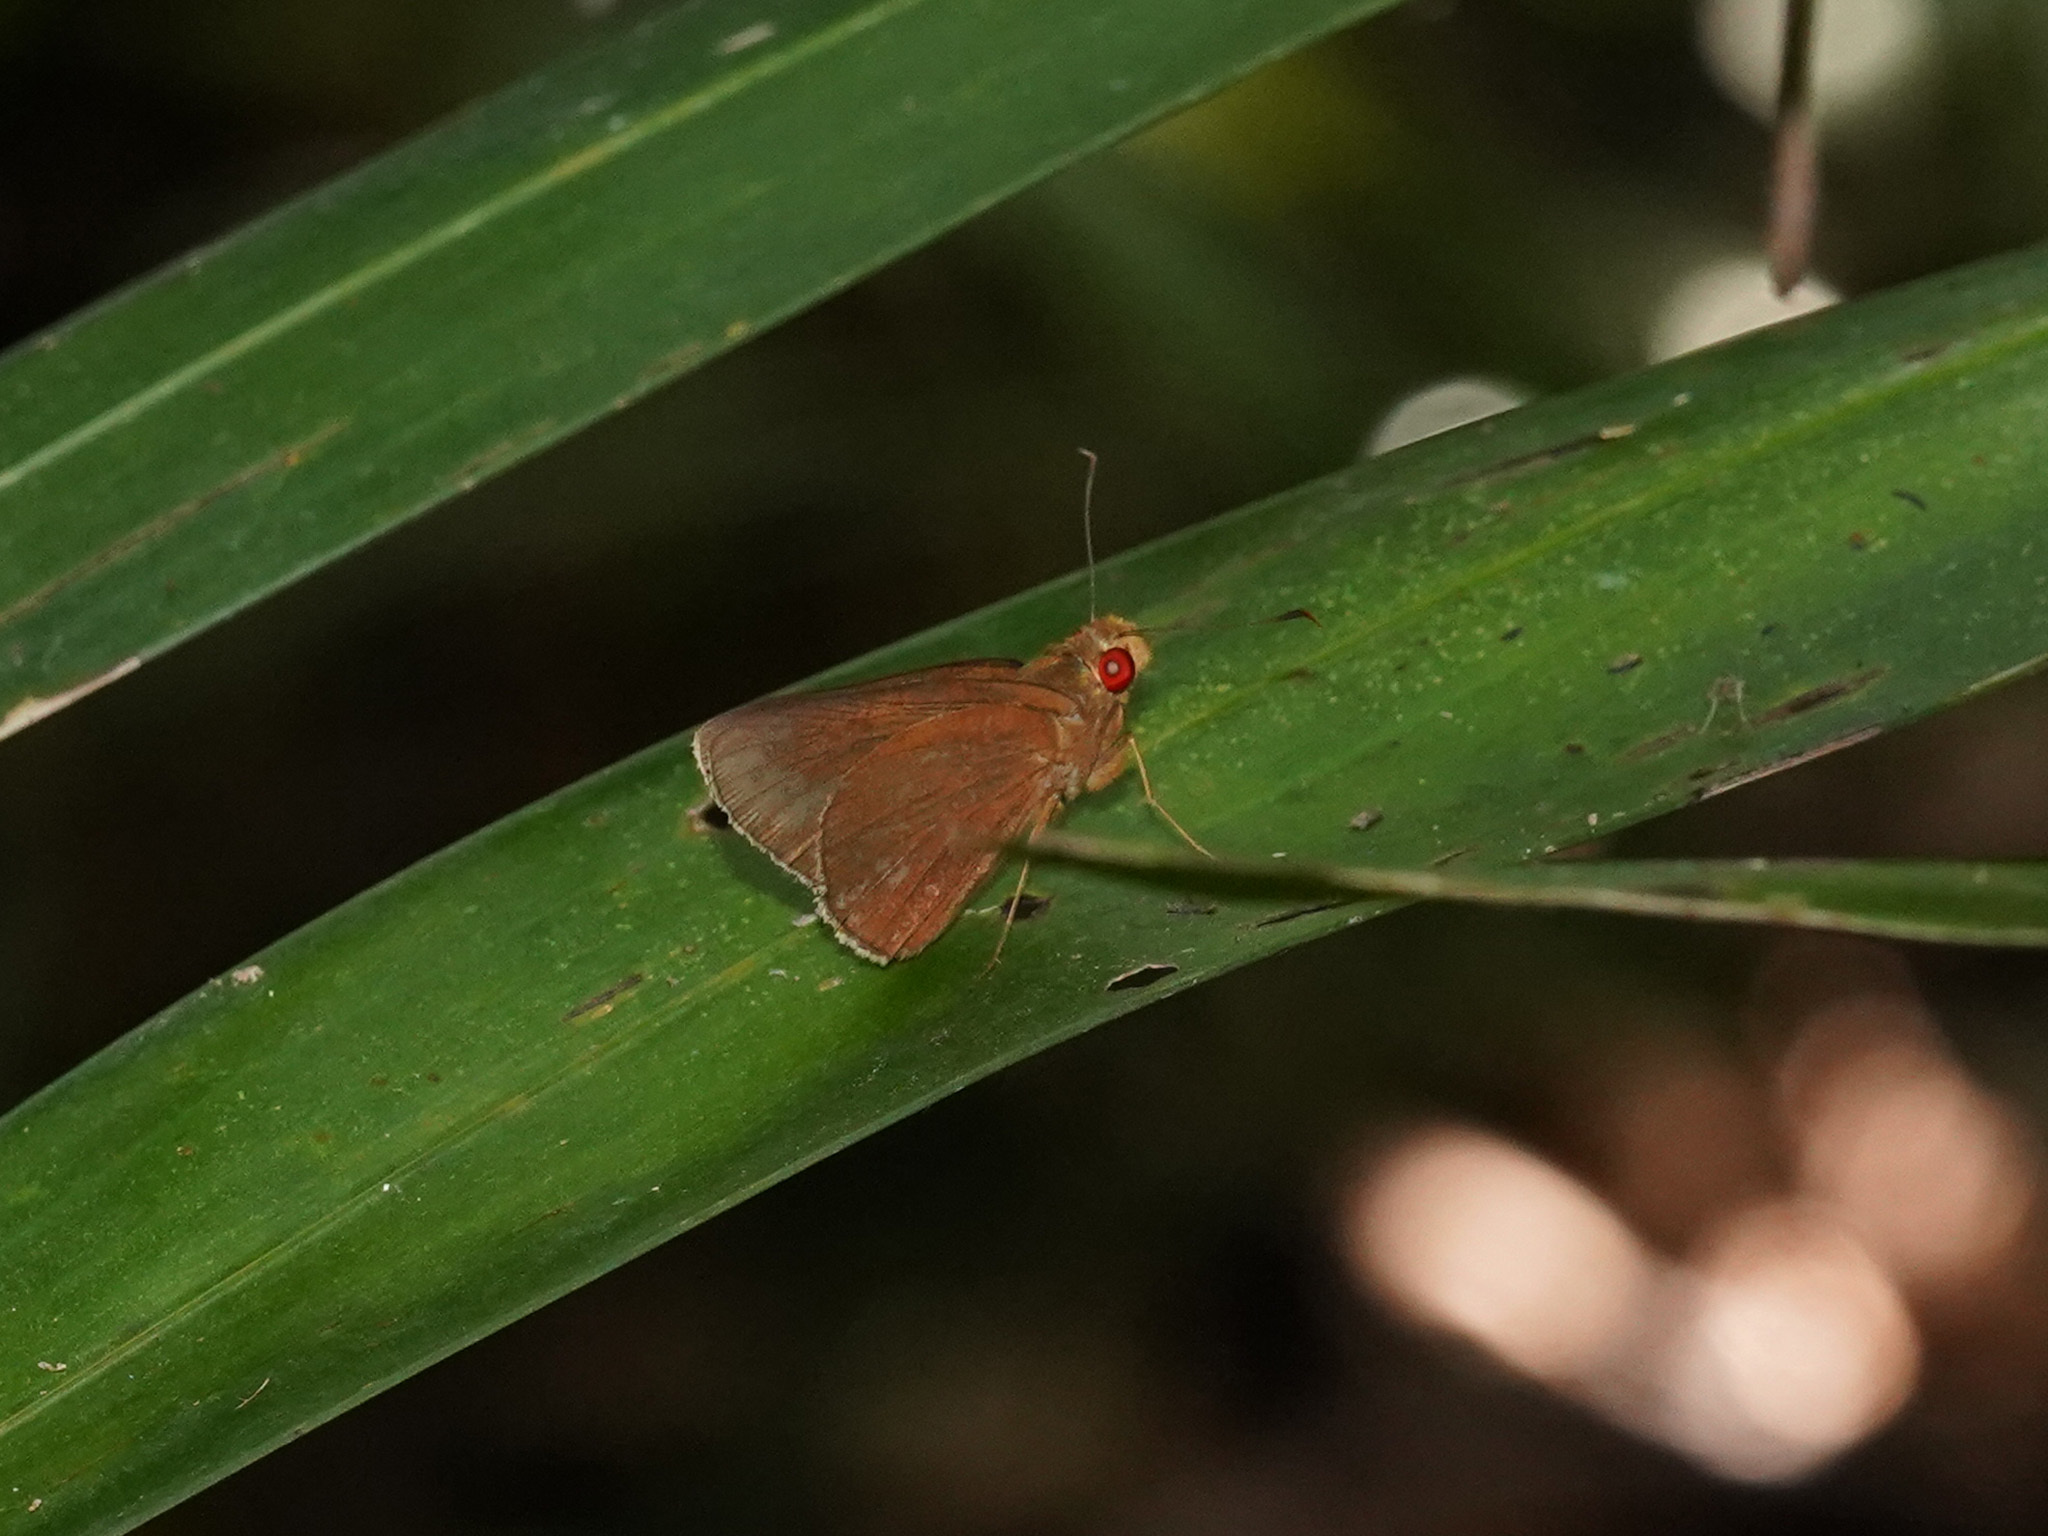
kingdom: Animalia
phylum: Arthropoda
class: Insecta
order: Lepidoptera
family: Hesperiidae
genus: Matapa
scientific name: Matapa aria
